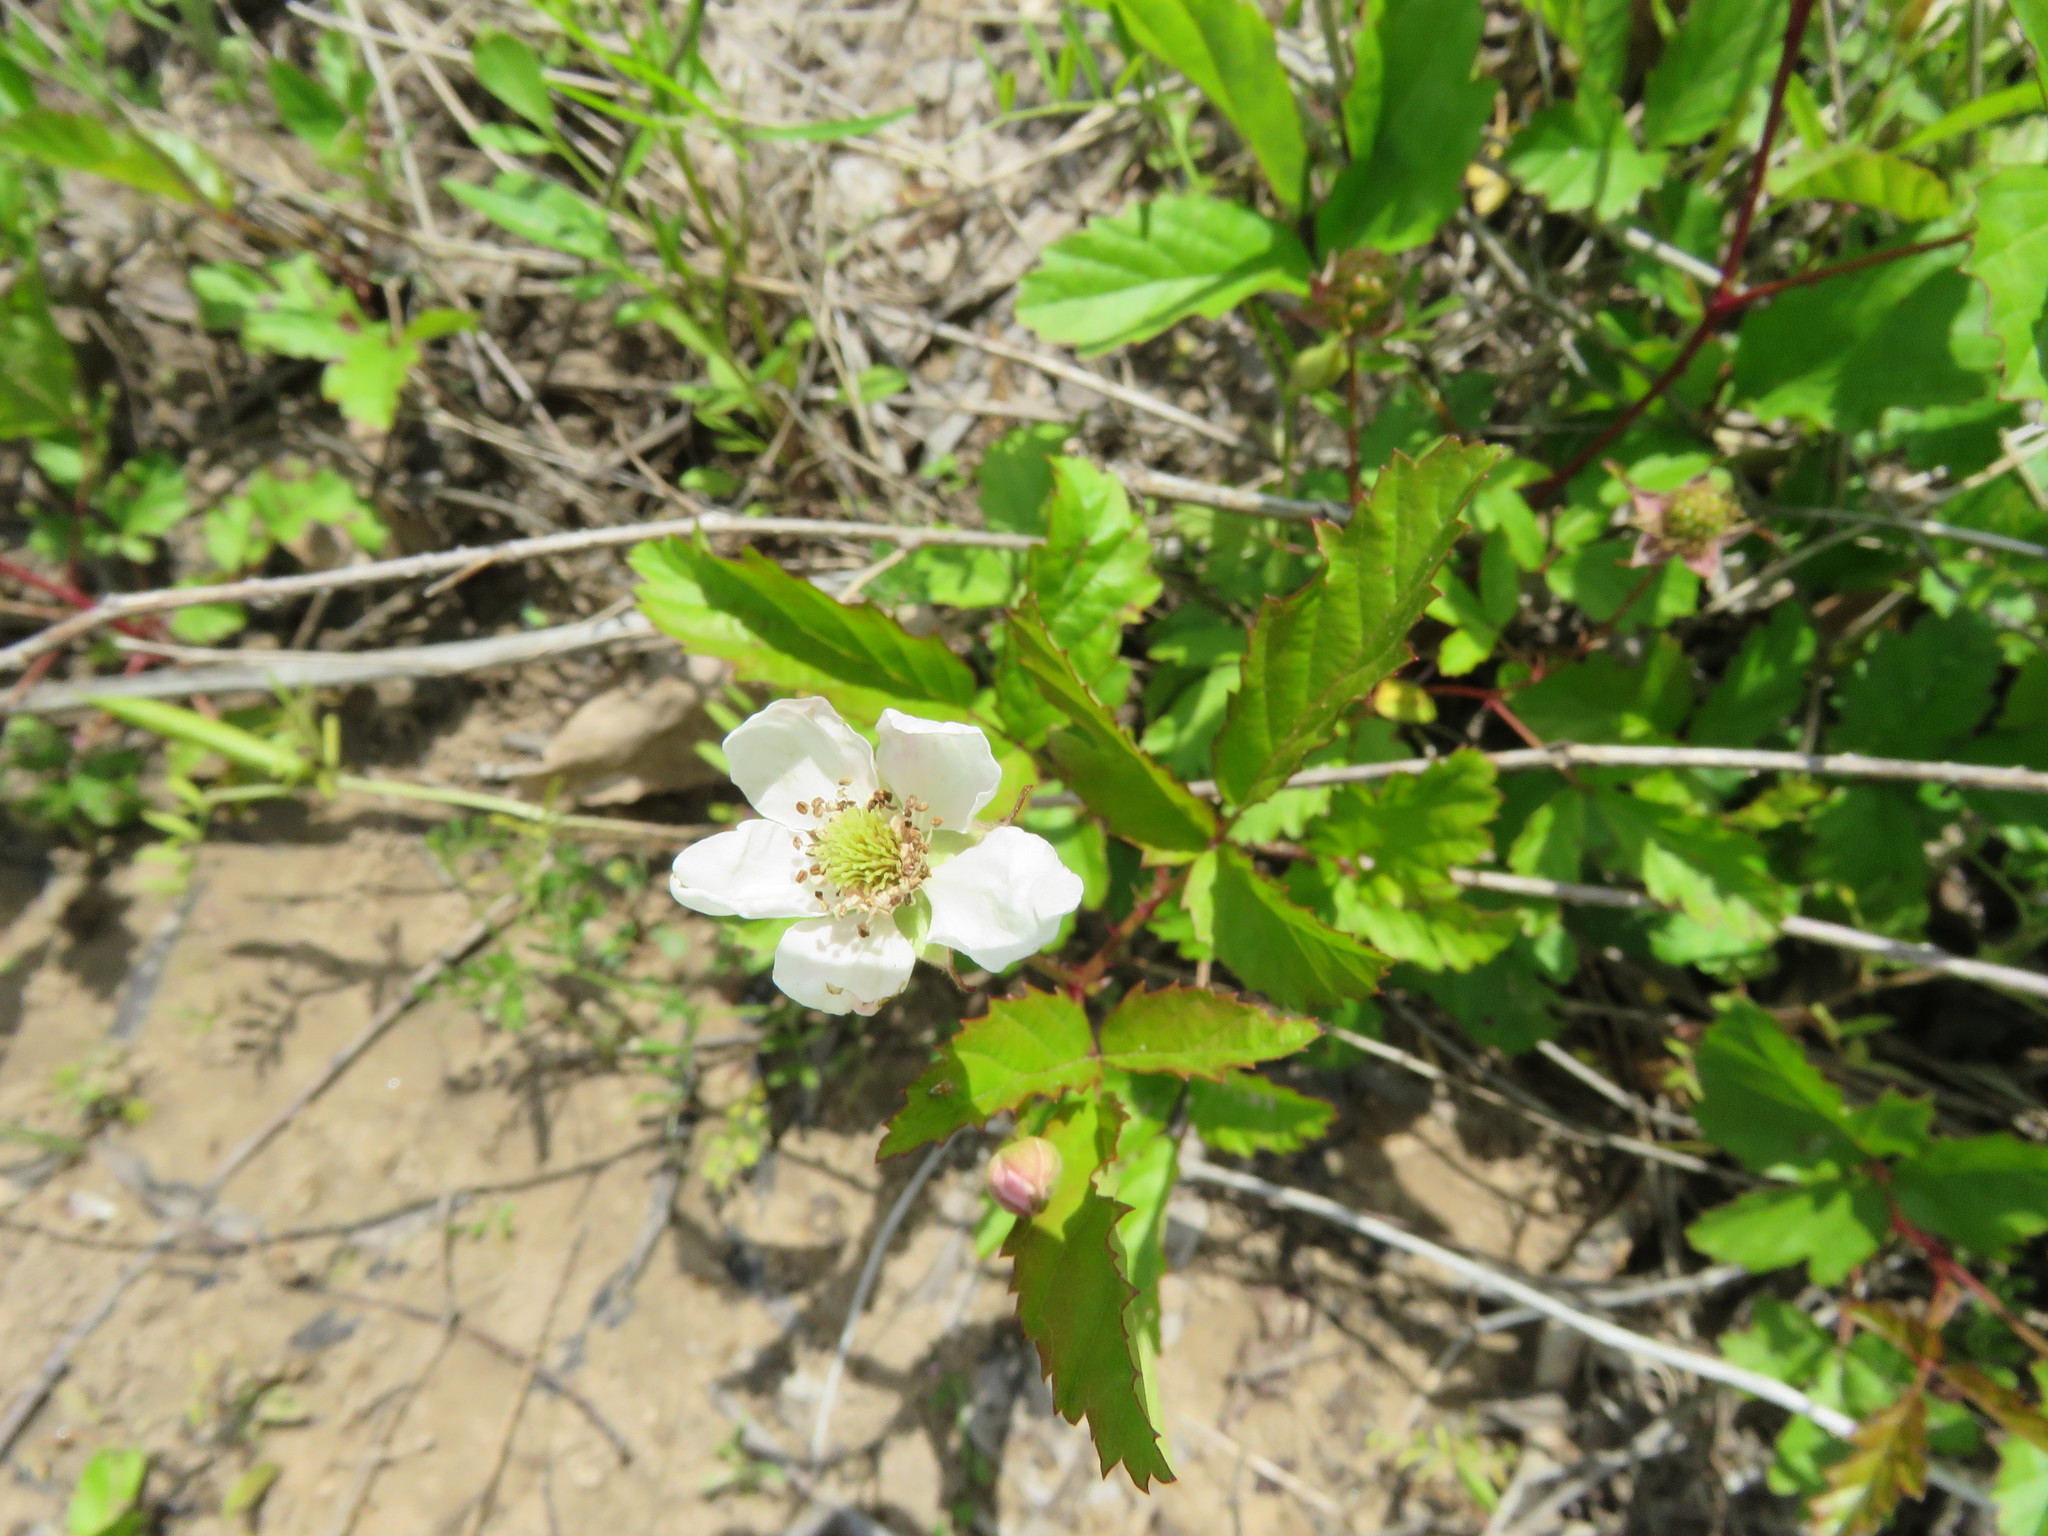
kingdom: Plantae
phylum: Tracheophyta
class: Magnoliopsida
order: Rosales
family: Rosaceae
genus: Rubus
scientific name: Rubus trivialis
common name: Southern dewberry
